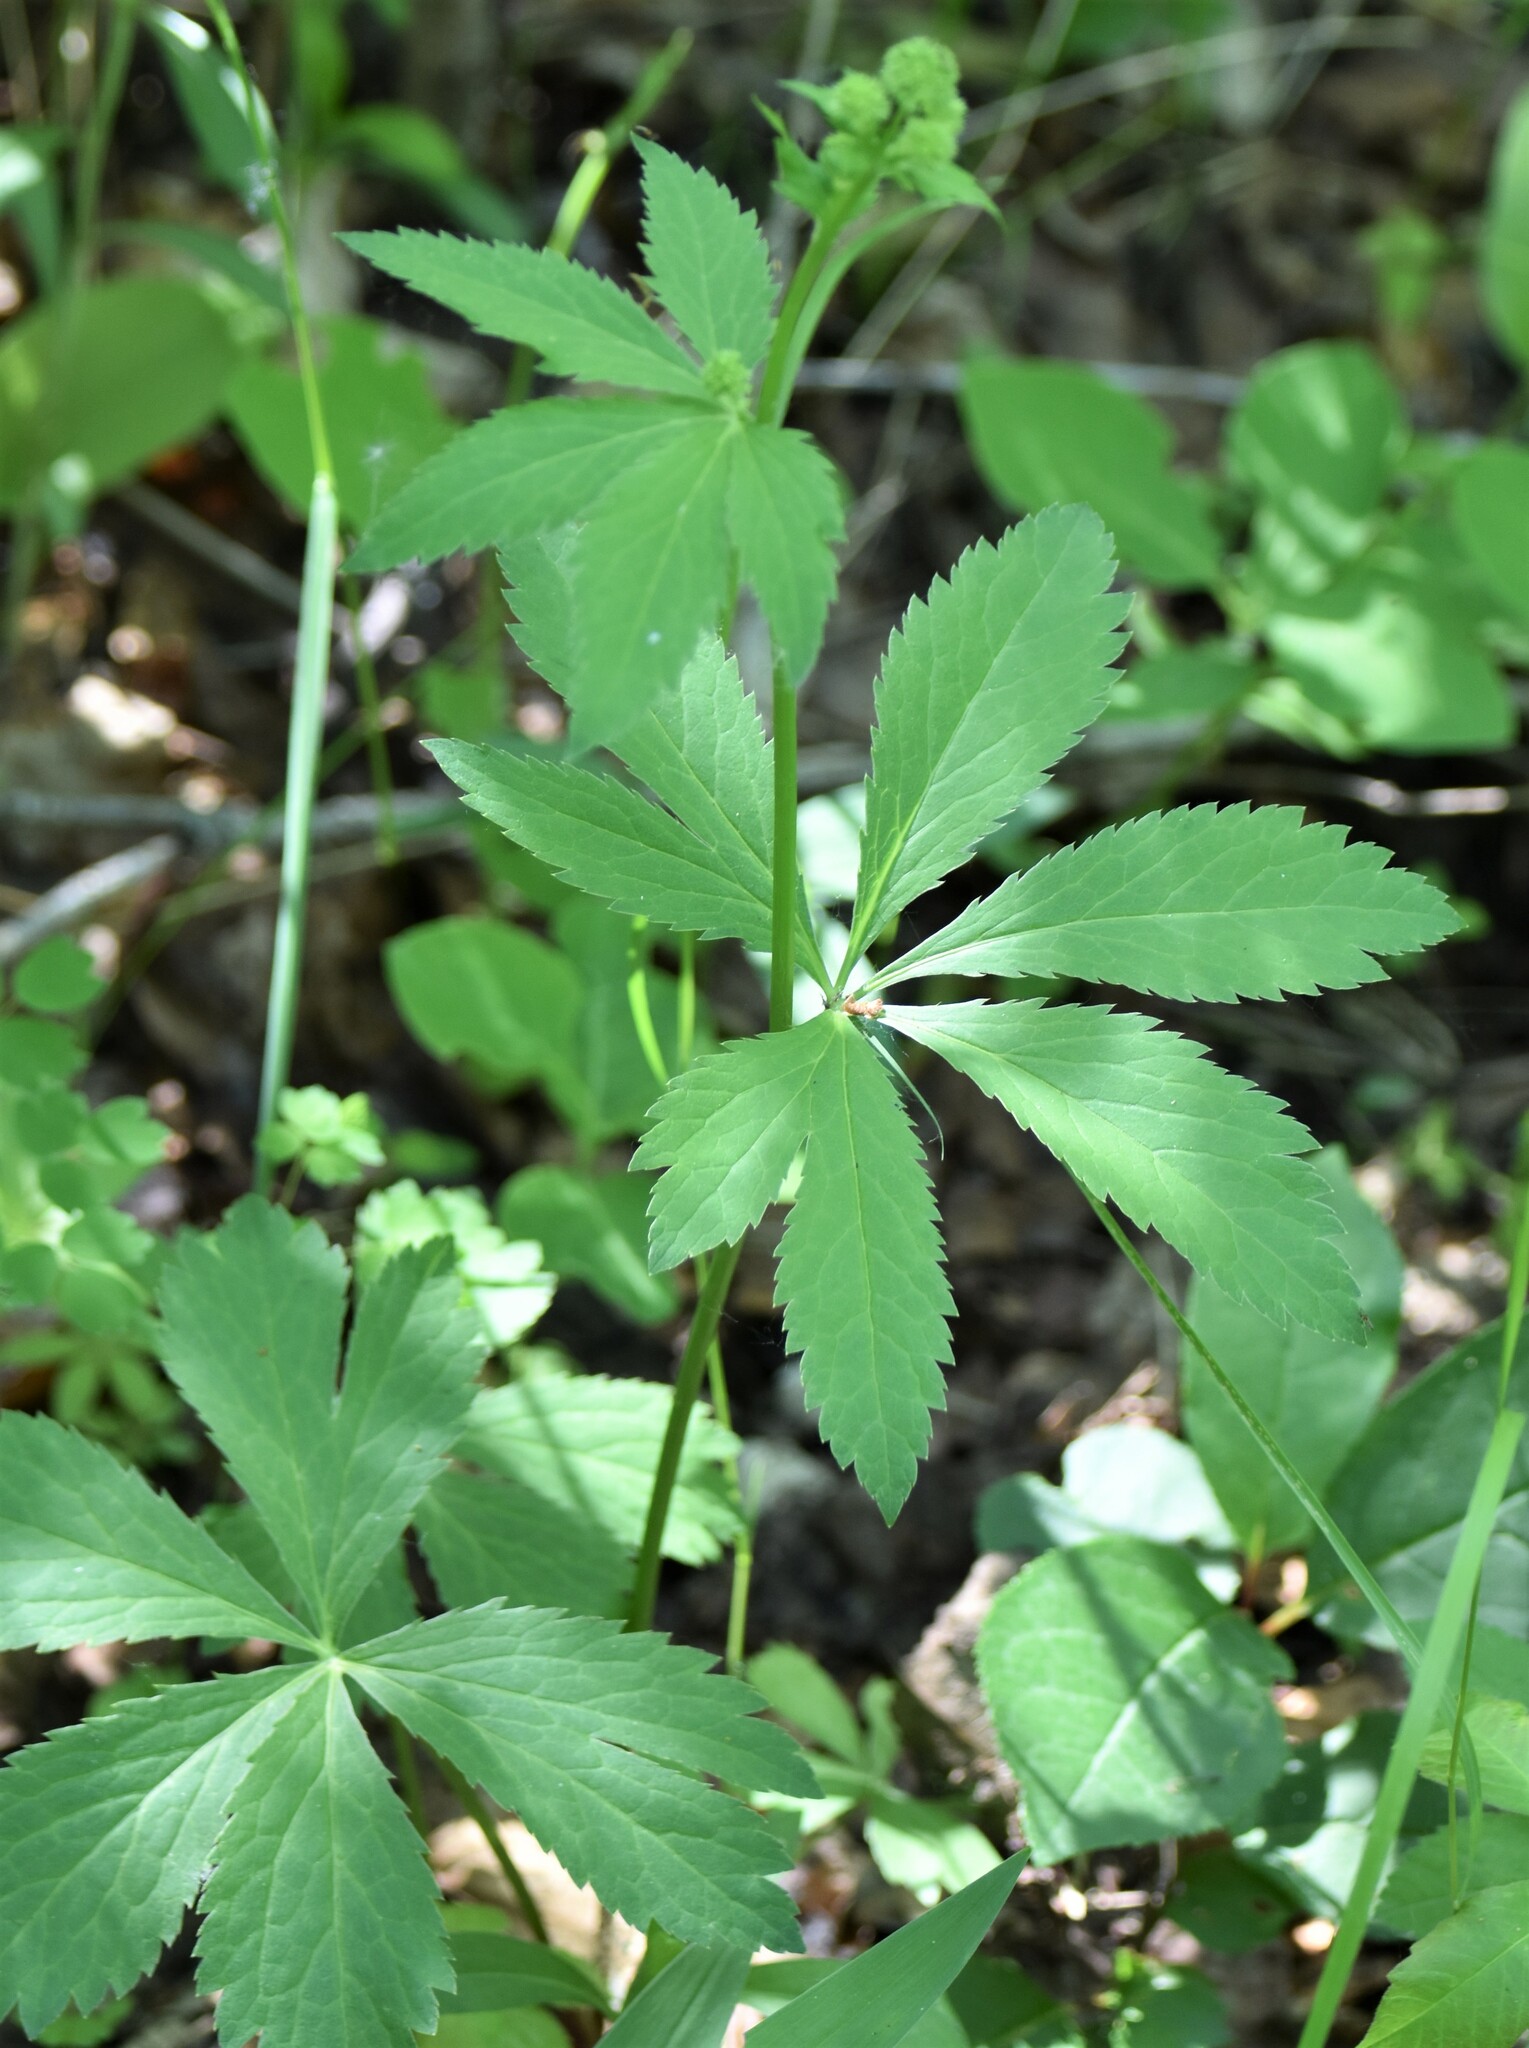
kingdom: Plantae
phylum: Tracheophyta
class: Magnoliopsida
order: Apiales
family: Apiaceae
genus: Sanicula
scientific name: Sanicula marilandica
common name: Black snakeroot
